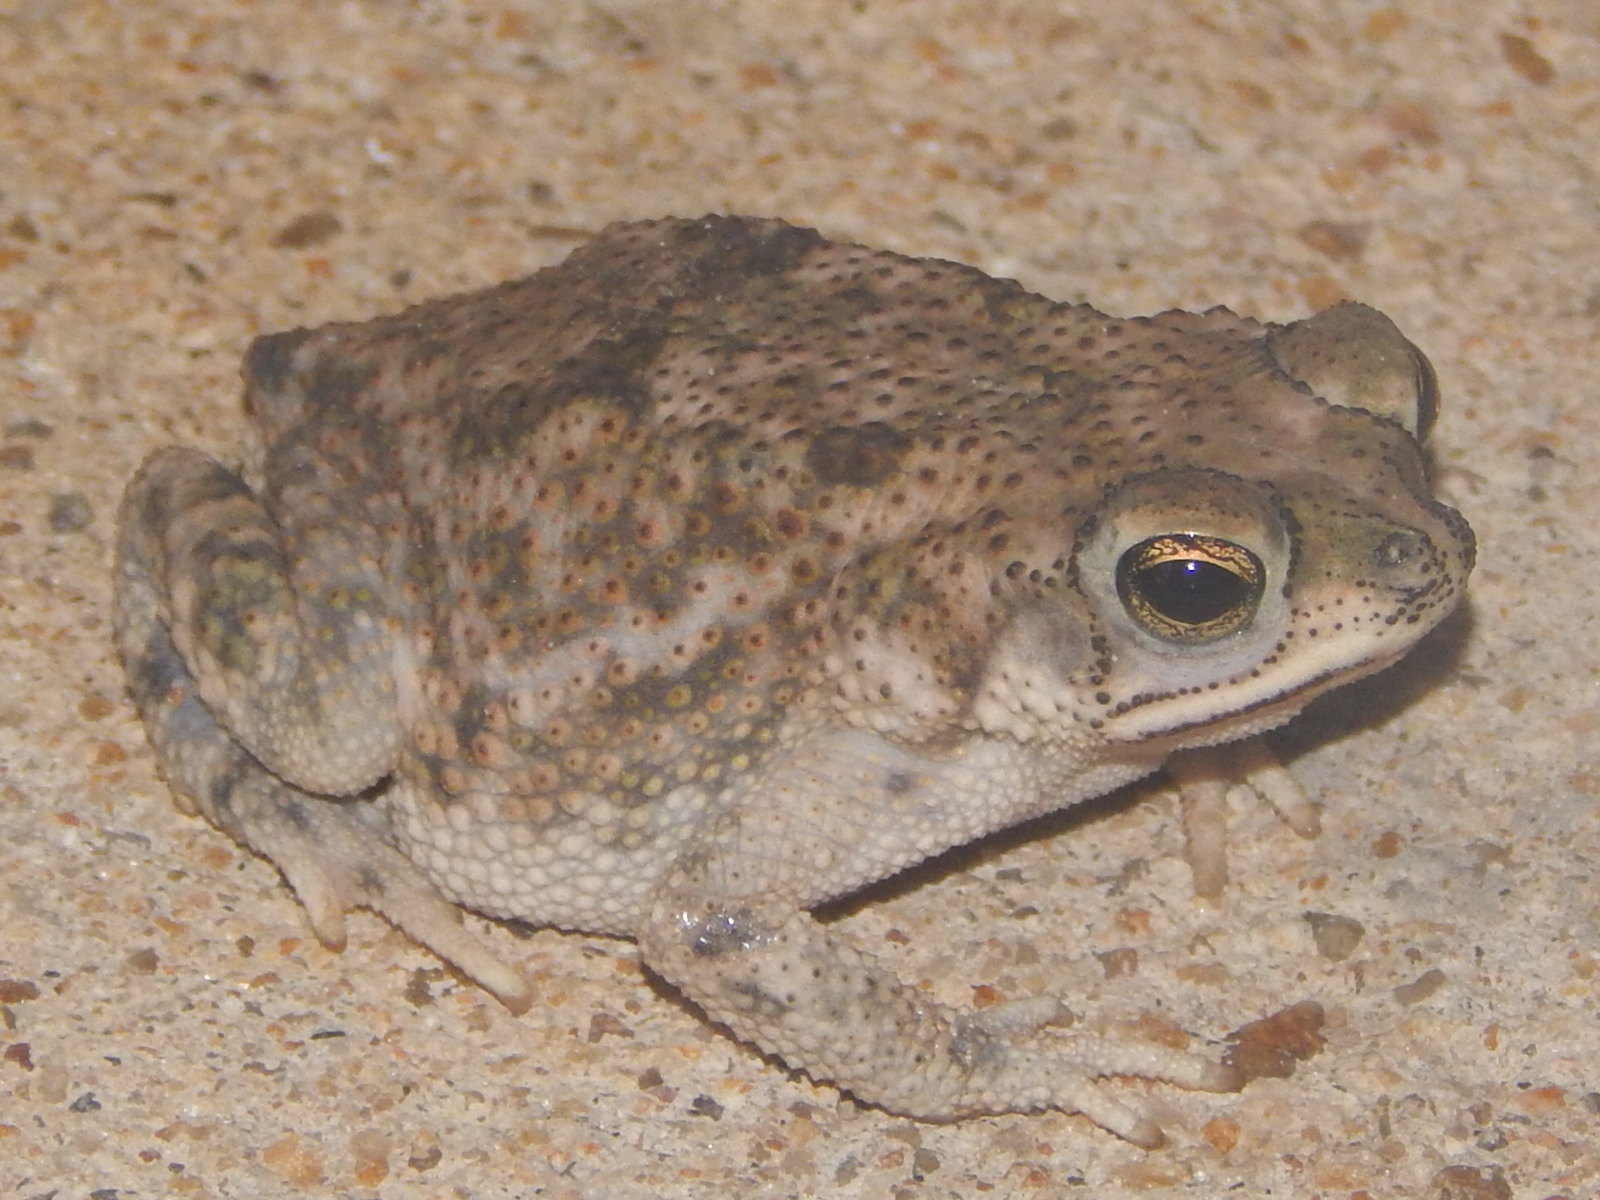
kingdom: Animalia
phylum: Chordata
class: Amphibia
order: Anura
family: Bufonidae
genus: Rhinella
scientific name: Rhinella granulosa
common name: Common lesser toad
